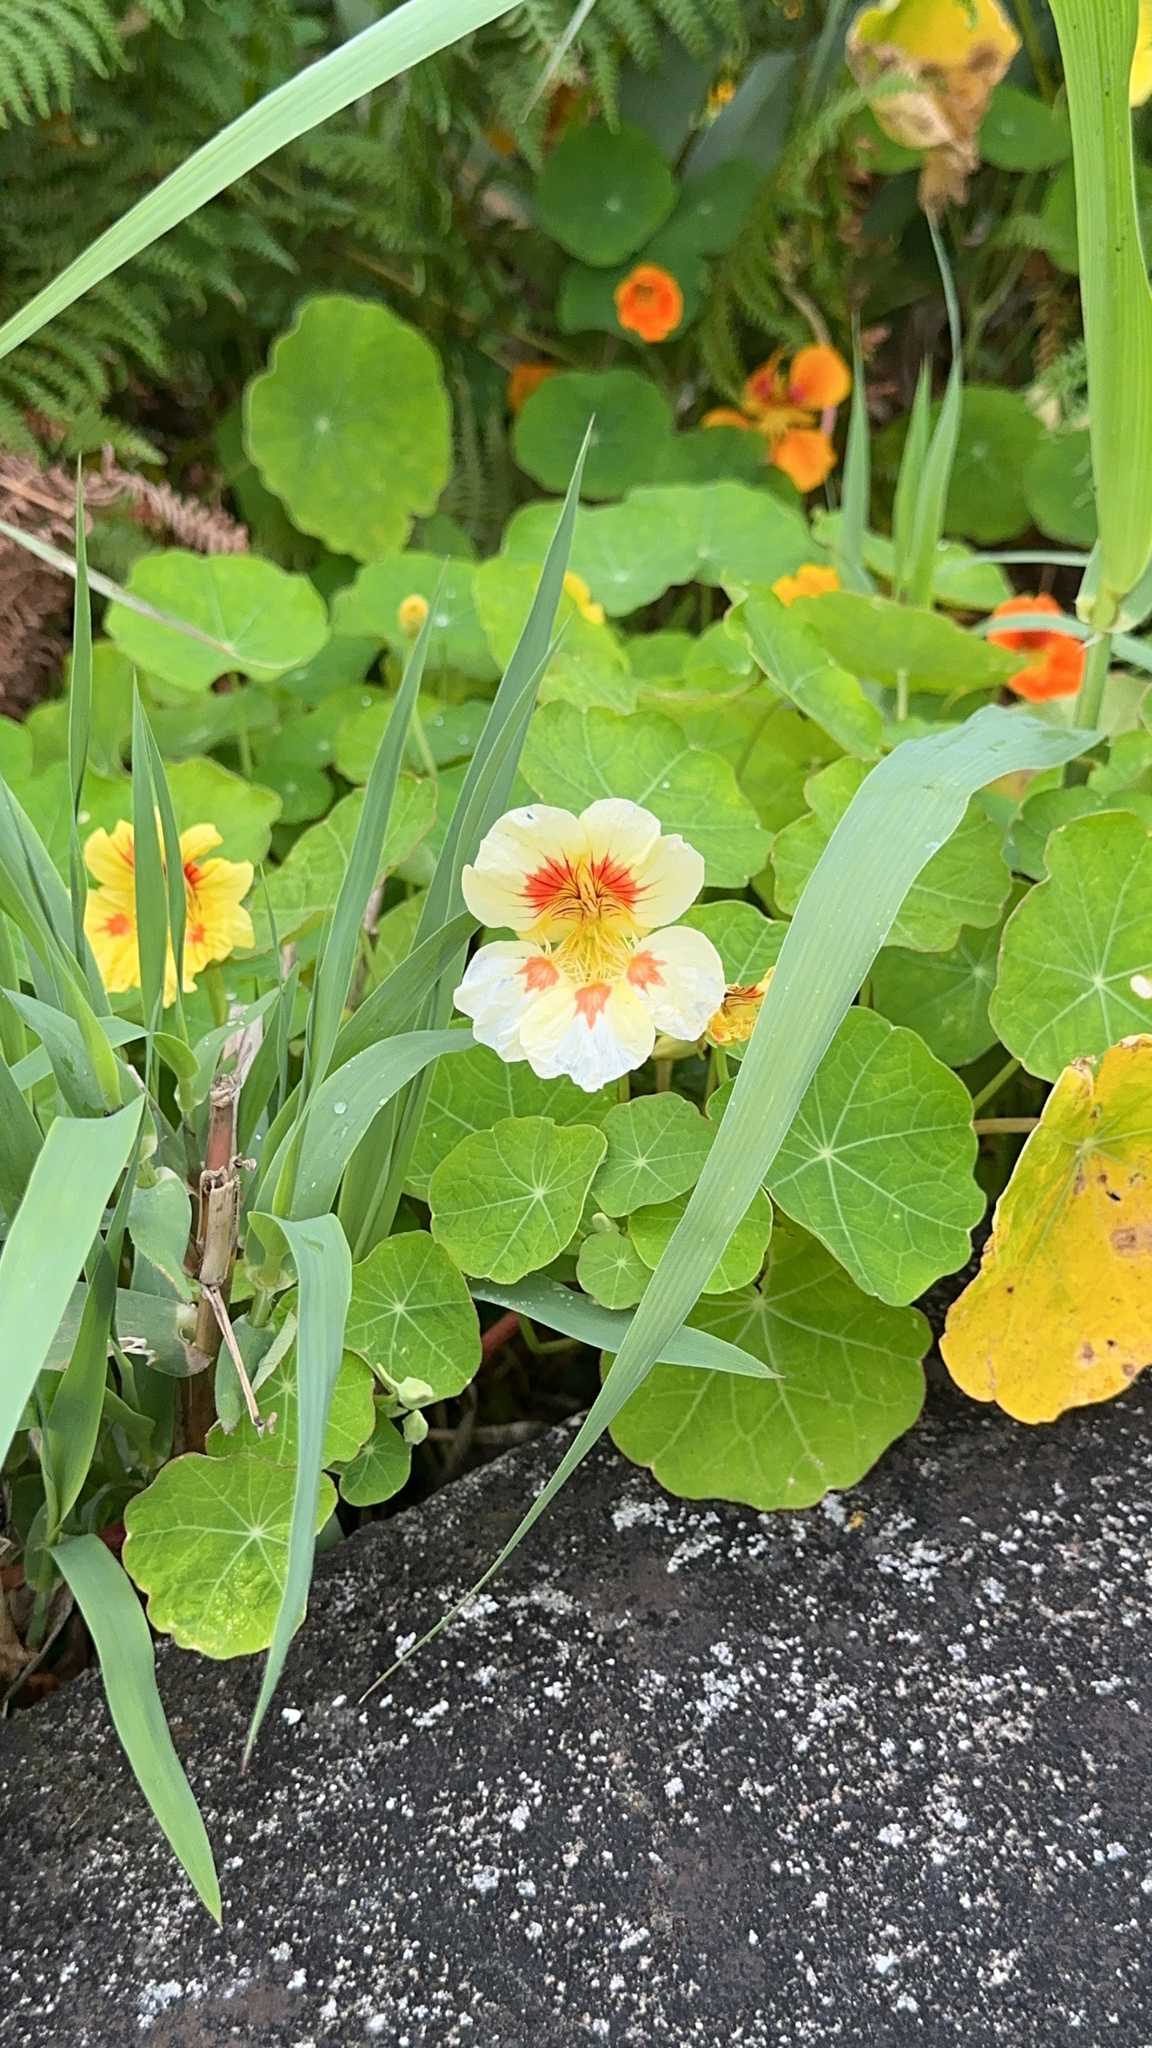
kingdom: Plantae
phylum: Tracheophyta
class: Magnoliopsida
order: Brassicales
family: Tropaeolaceae
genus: Tropaeolum
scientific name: Tropaeolum majus
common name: Nasturtium
